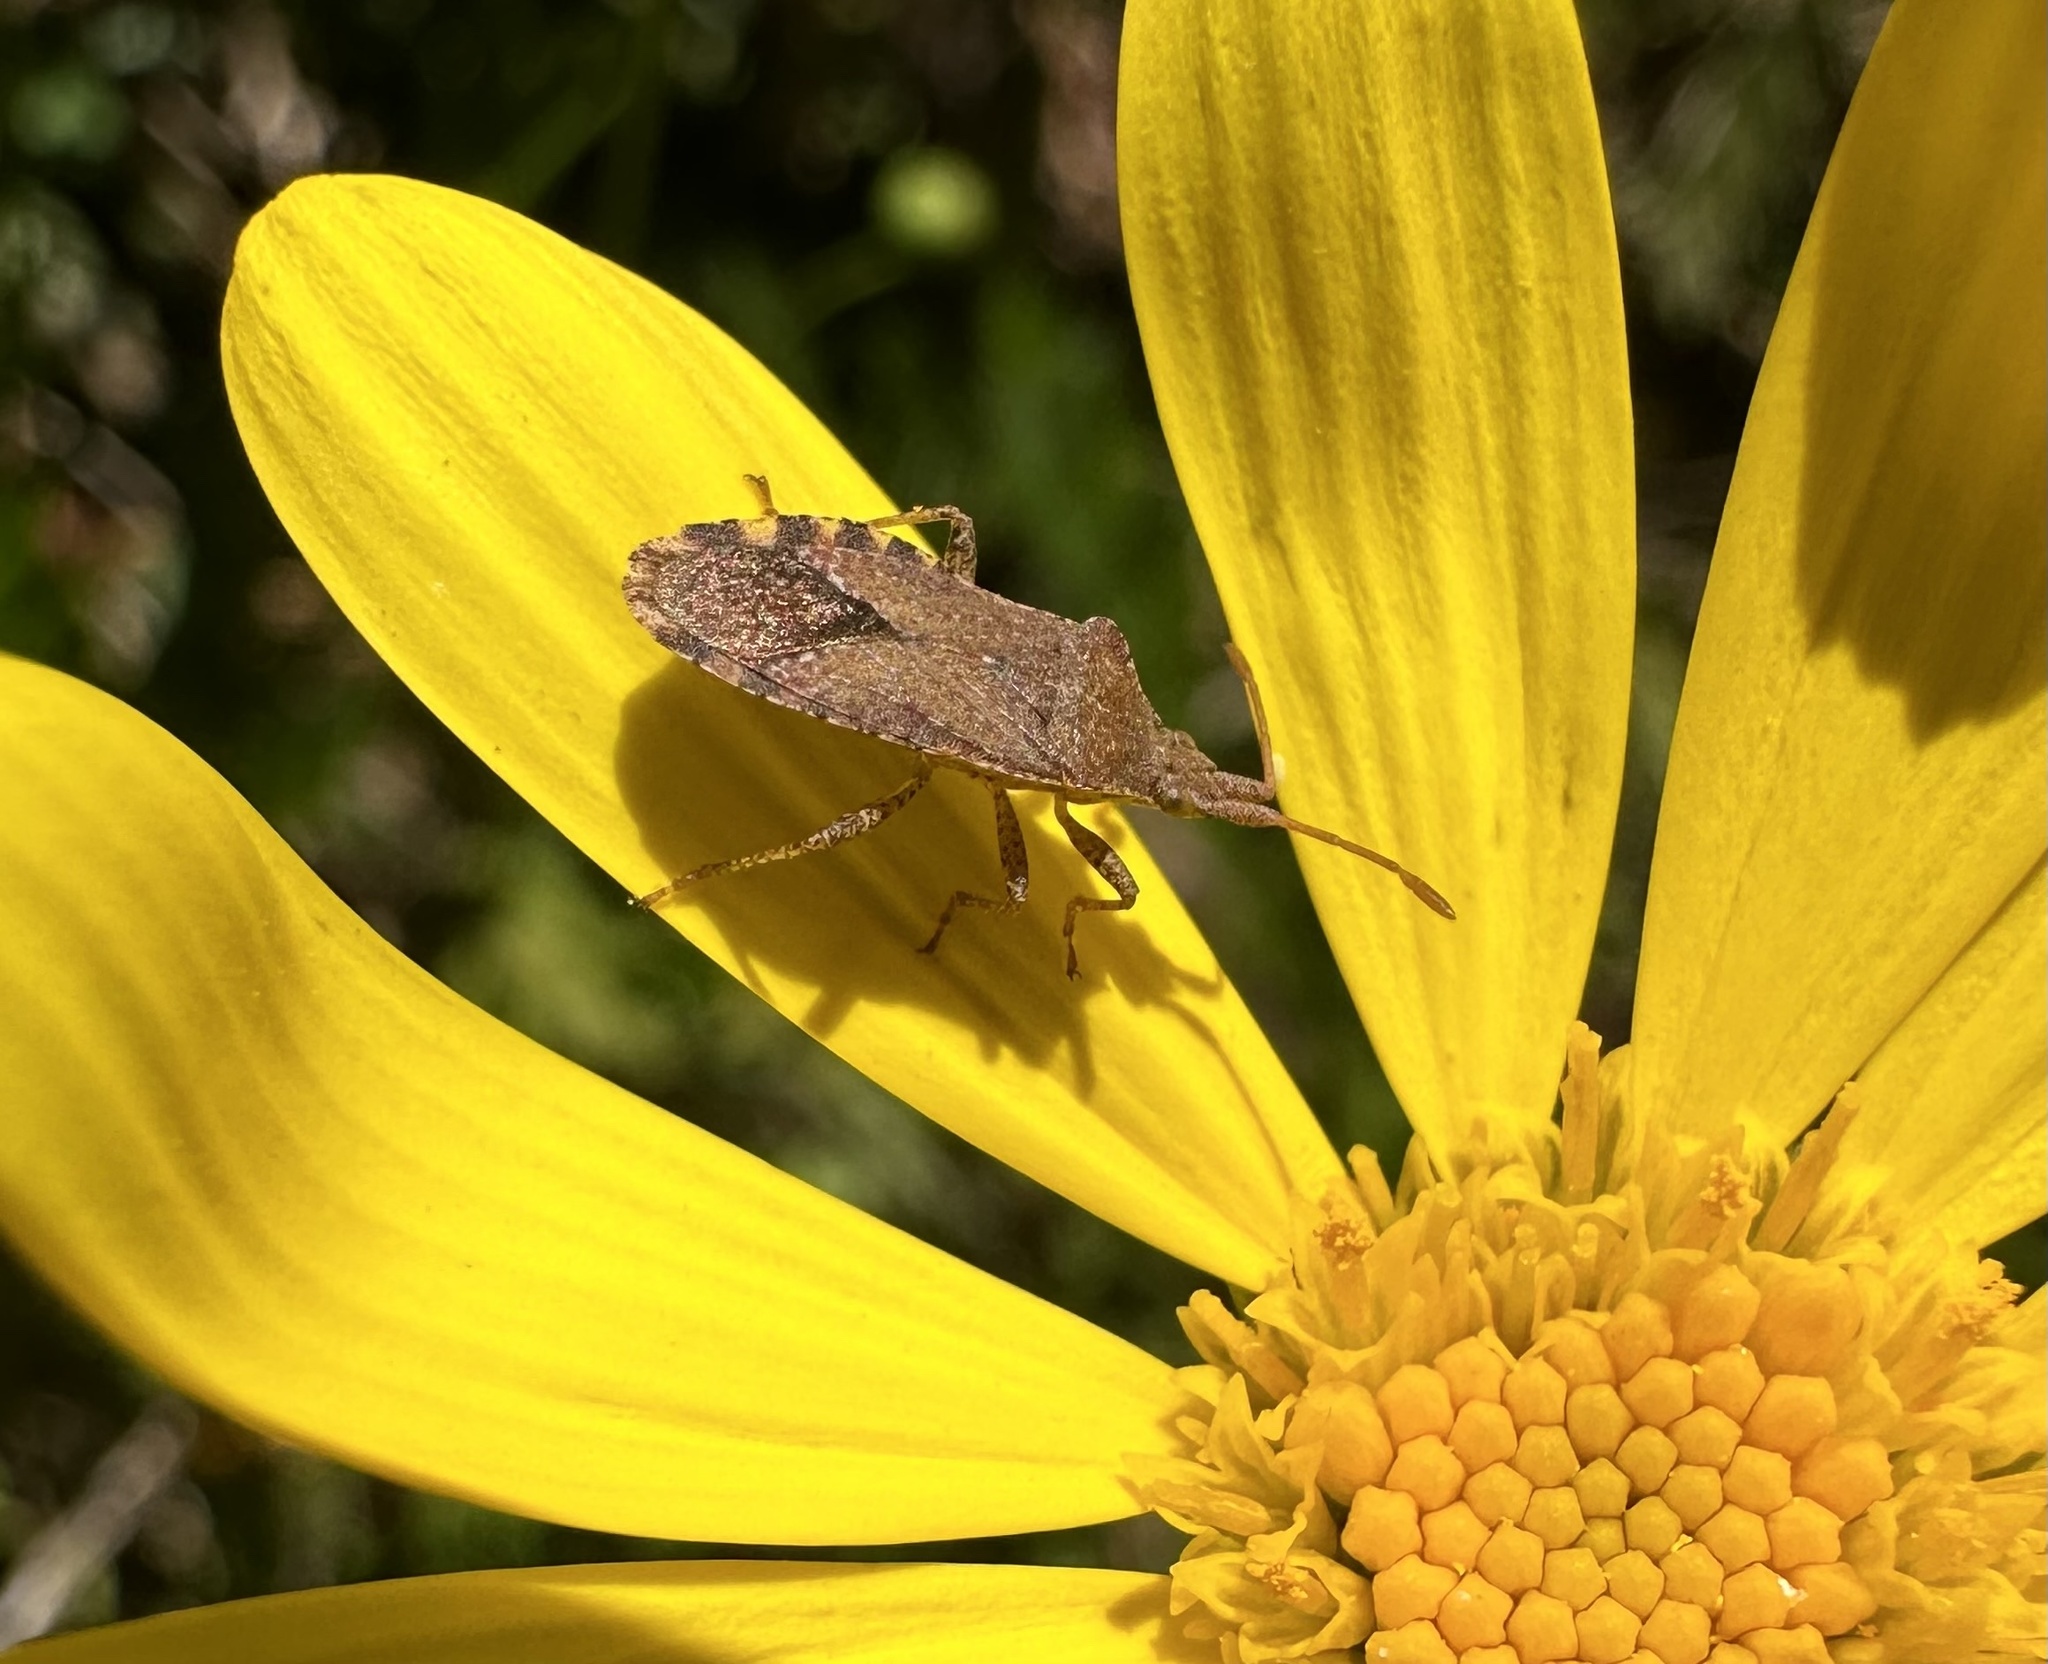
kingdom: Animalia
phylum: Arthropoda
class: Insecta
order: Hemiptera
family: Coreidae
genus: Althos
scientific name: Althos
